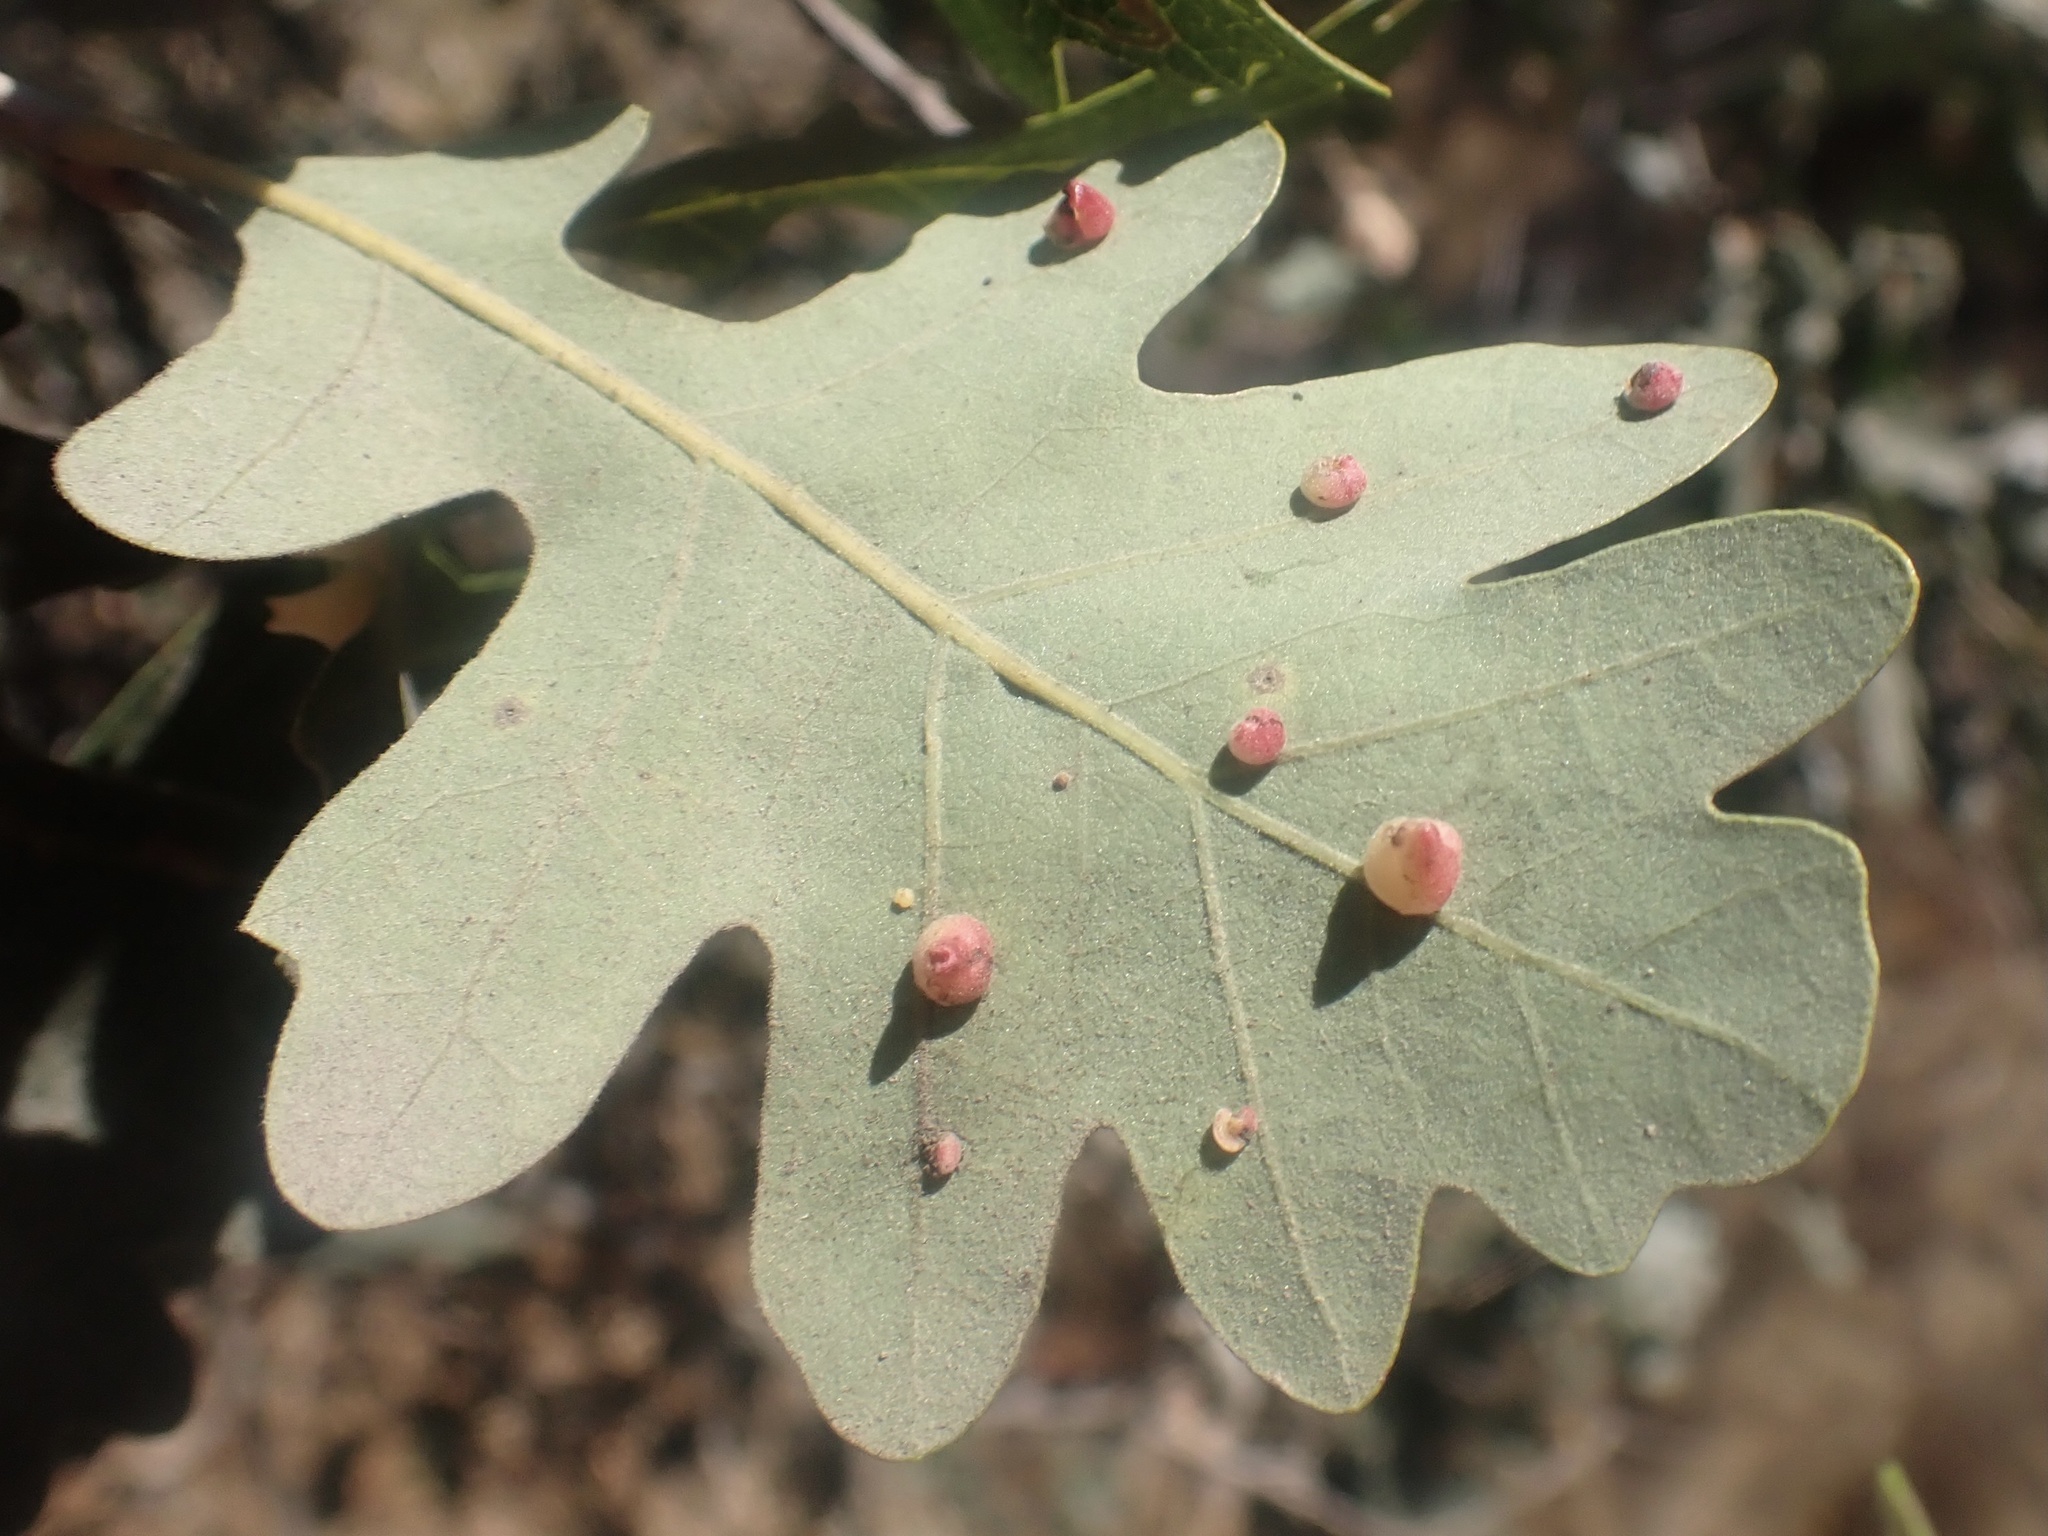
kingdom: Animalia
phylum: Arthropoda
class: Insecta
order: Hymenoptera
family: Cynipidae
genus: Andricus
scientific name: Andricus
